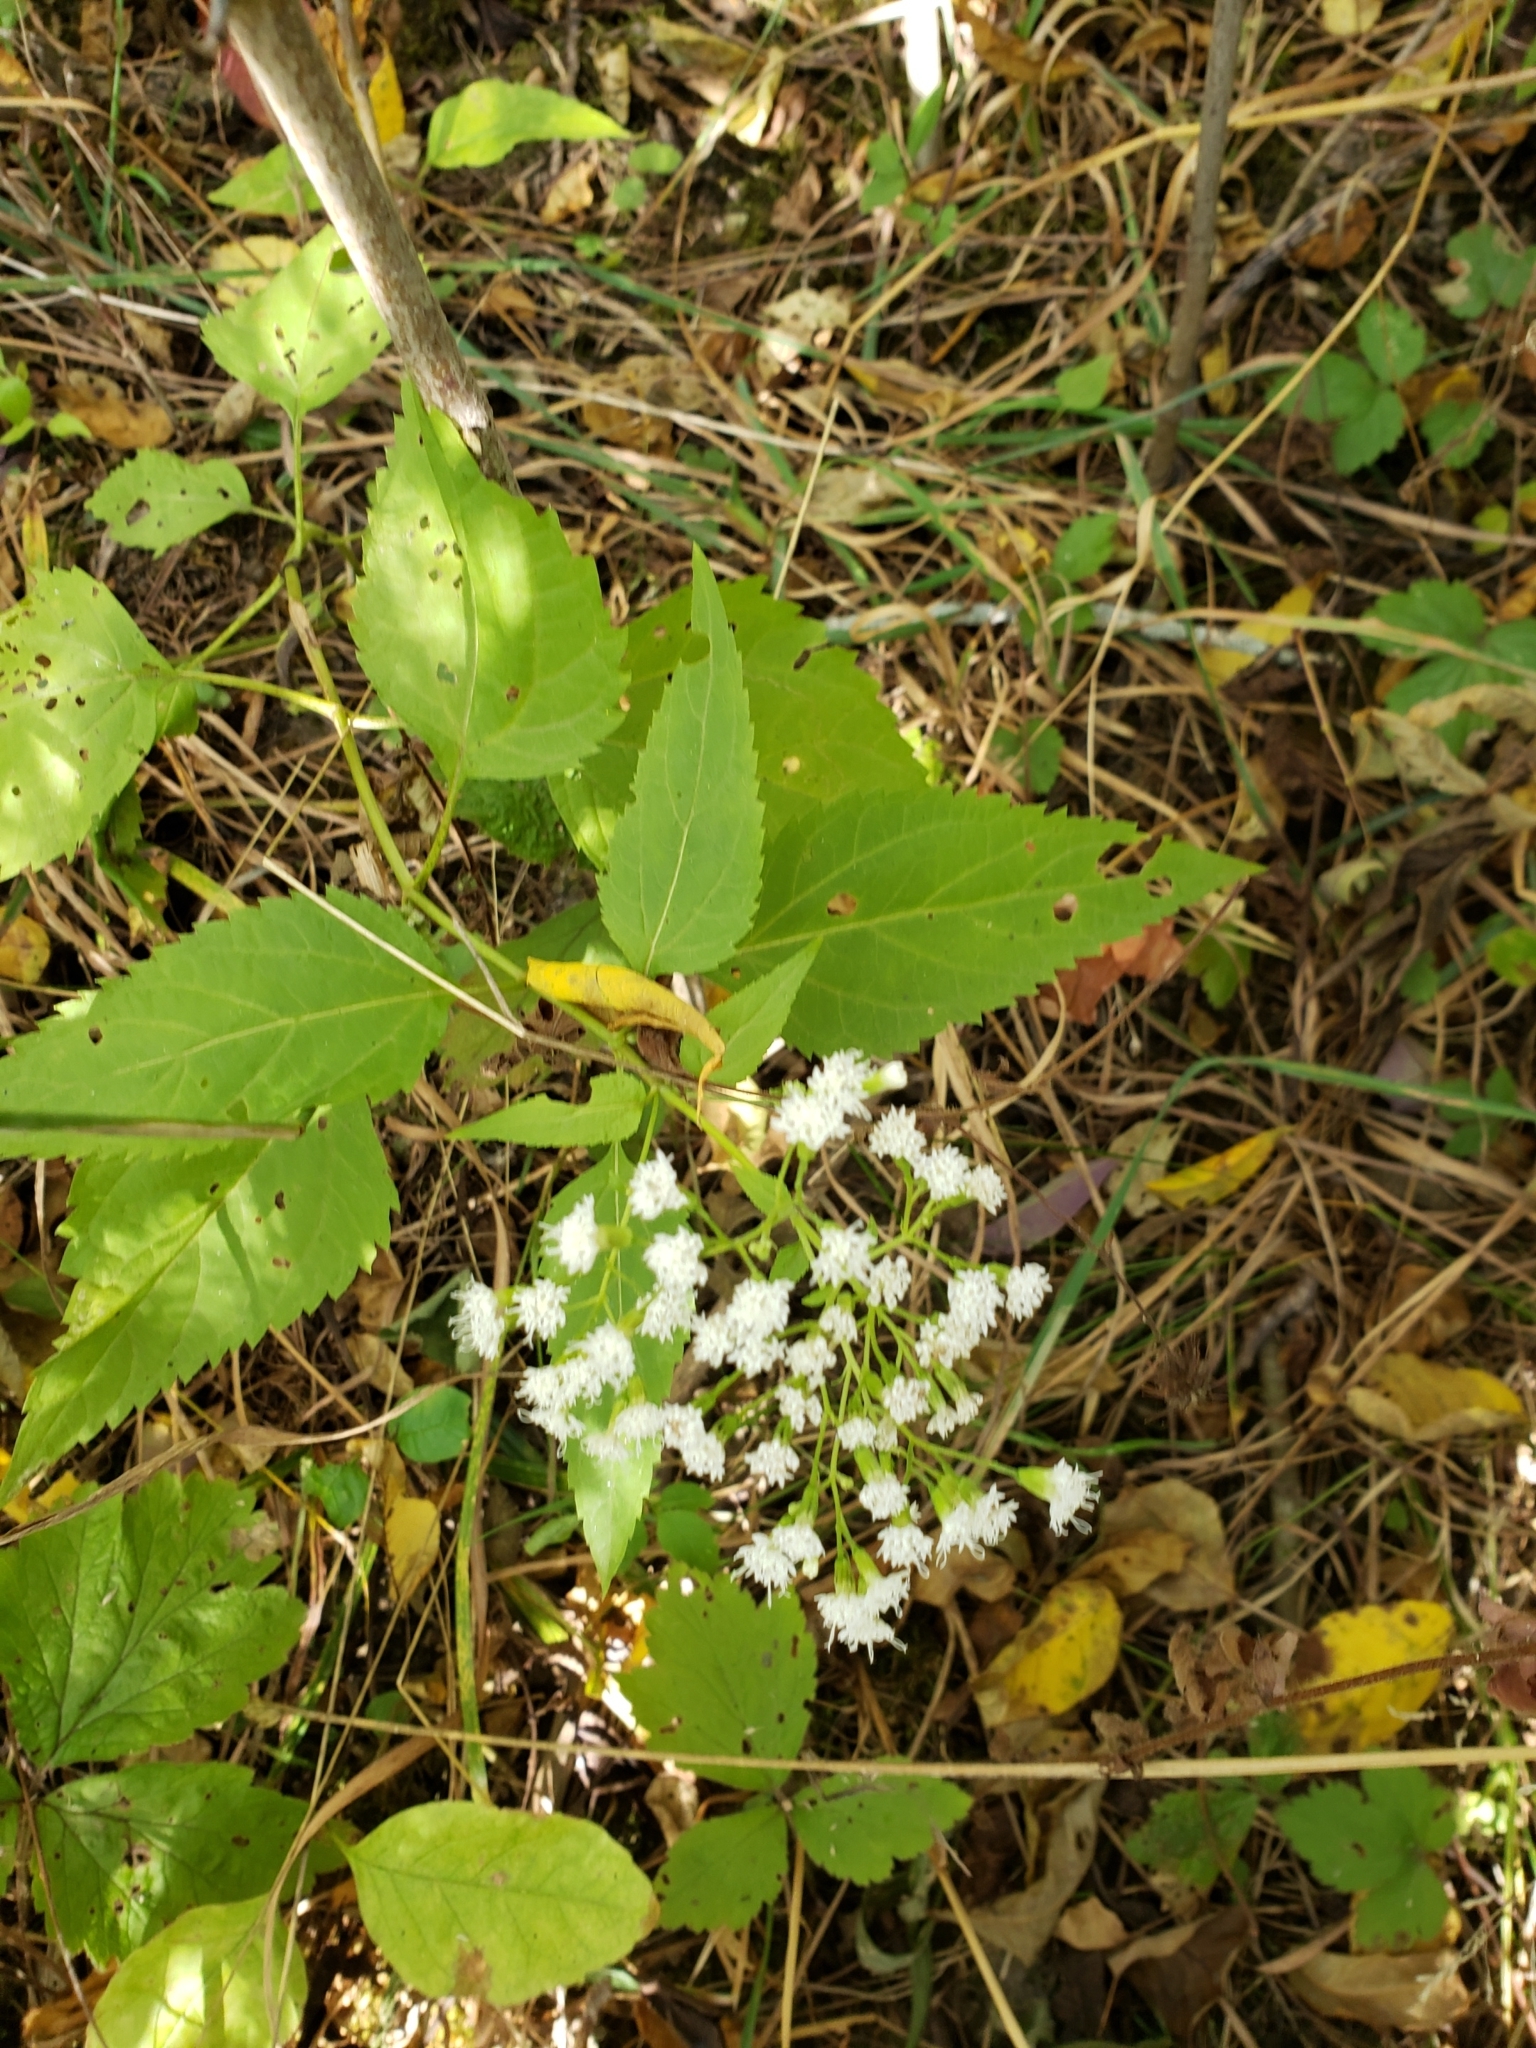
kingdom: Plantae
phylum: Tracheophyta
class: Magnoliopsida
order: Asterales
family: Asteraceae
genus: Ageratina
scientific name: Ageratina altissima
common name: White snakeroot
